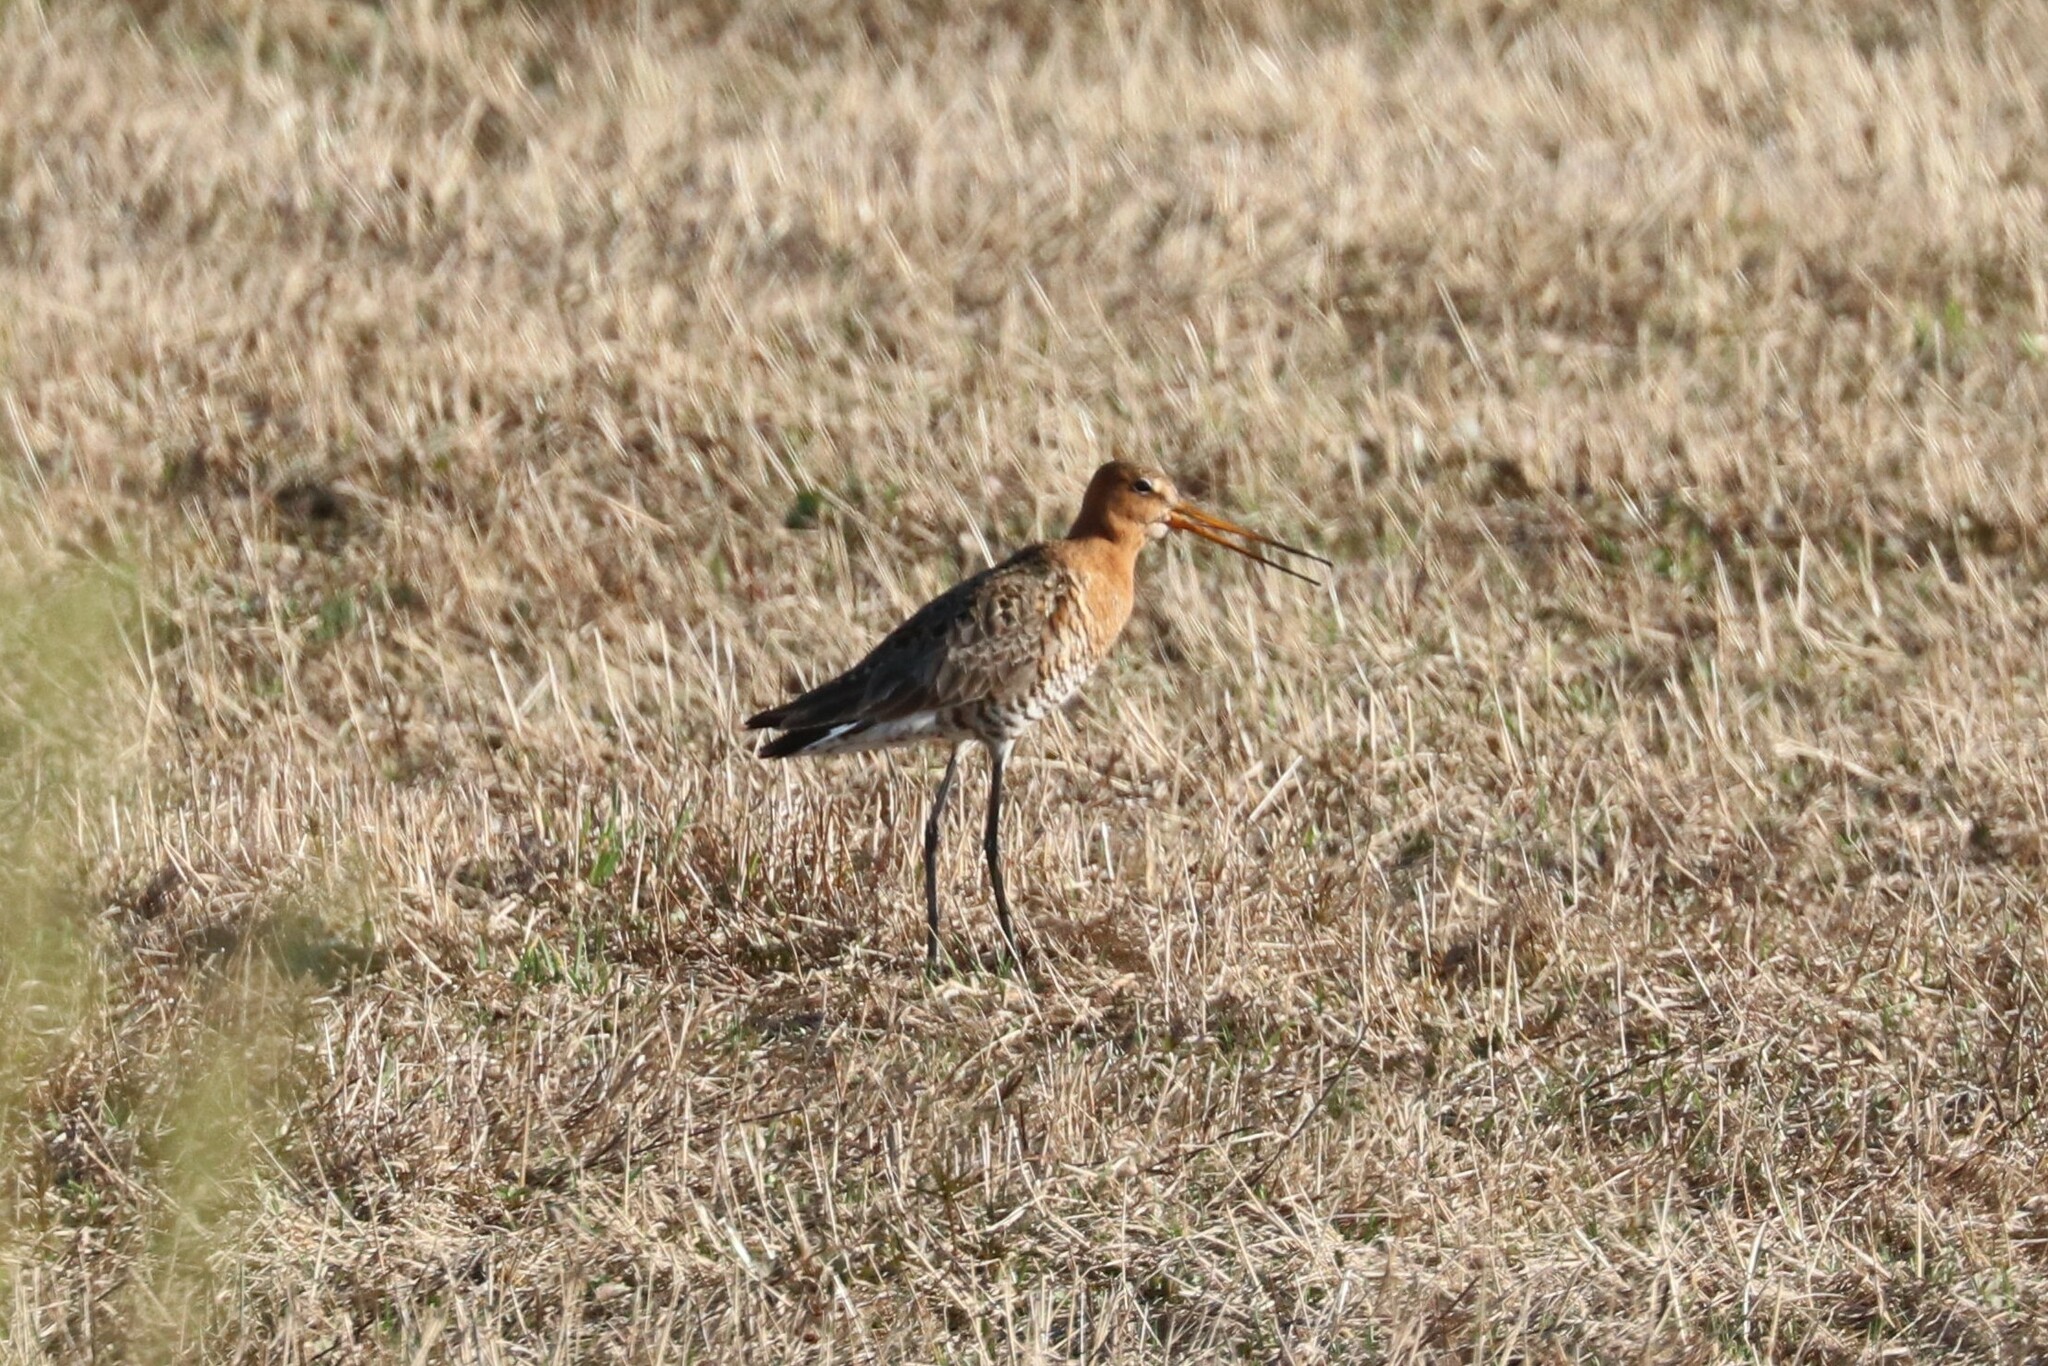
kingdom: Animalia
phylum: Chordata
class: Aves
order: Charadriiformes
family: Scolopacidae
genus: Limosa
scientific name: Limosa limosa
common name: Black-tailed godwit
